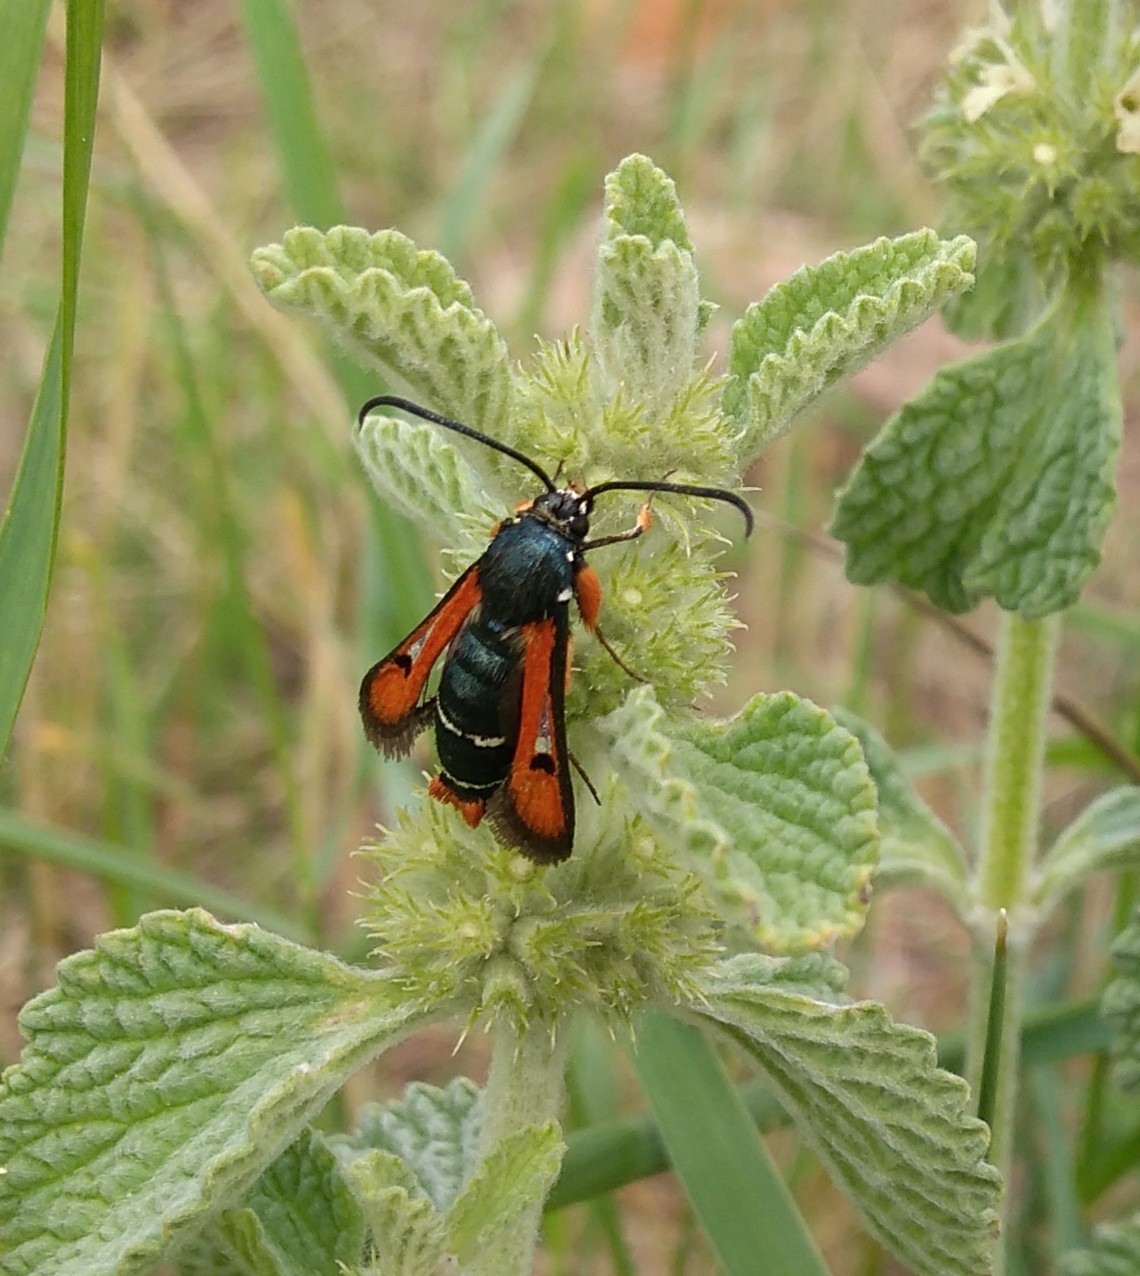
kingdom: Animalia
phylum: Arthropoda
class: Insecta
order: Lepidoptera
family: Sesiidae
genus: Pyropteron
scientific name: Pyropteron chrysidiforme
